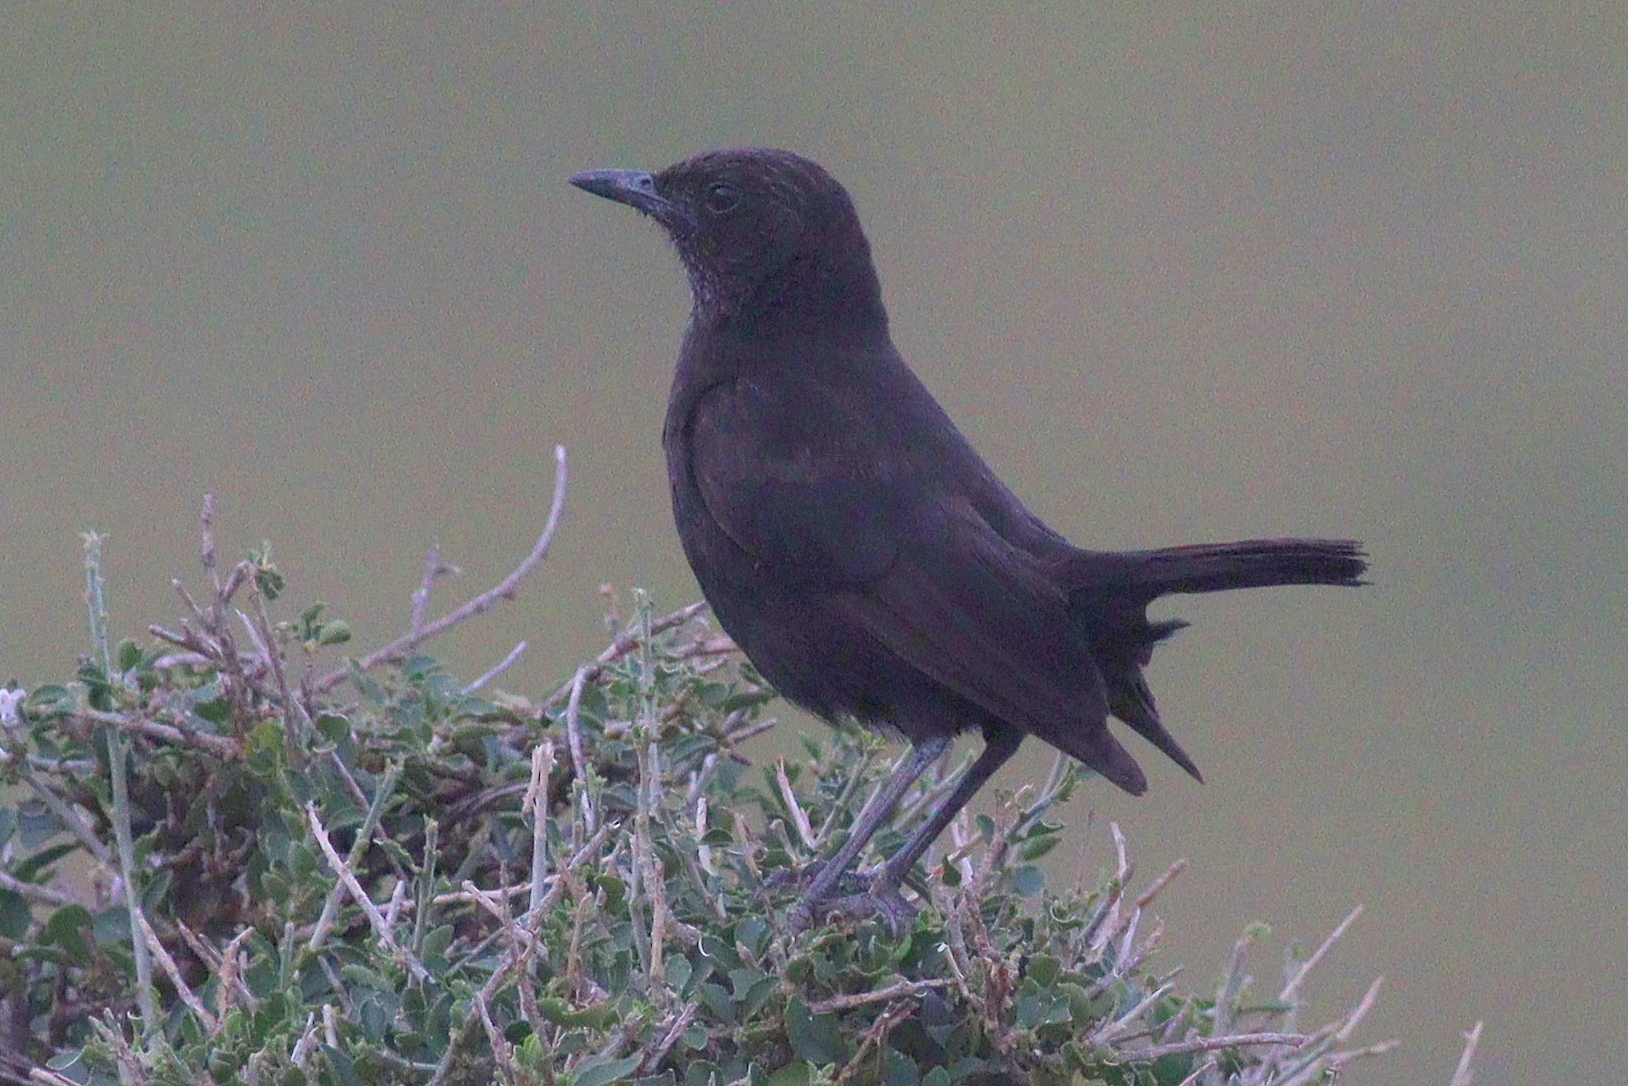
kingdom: Animalia
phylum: Chordata
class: Aves
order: Passeriformes
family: Muscicapidae
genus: Myrmecocichla
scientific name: Myrmecocichla aethiops
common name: Anteater chat
